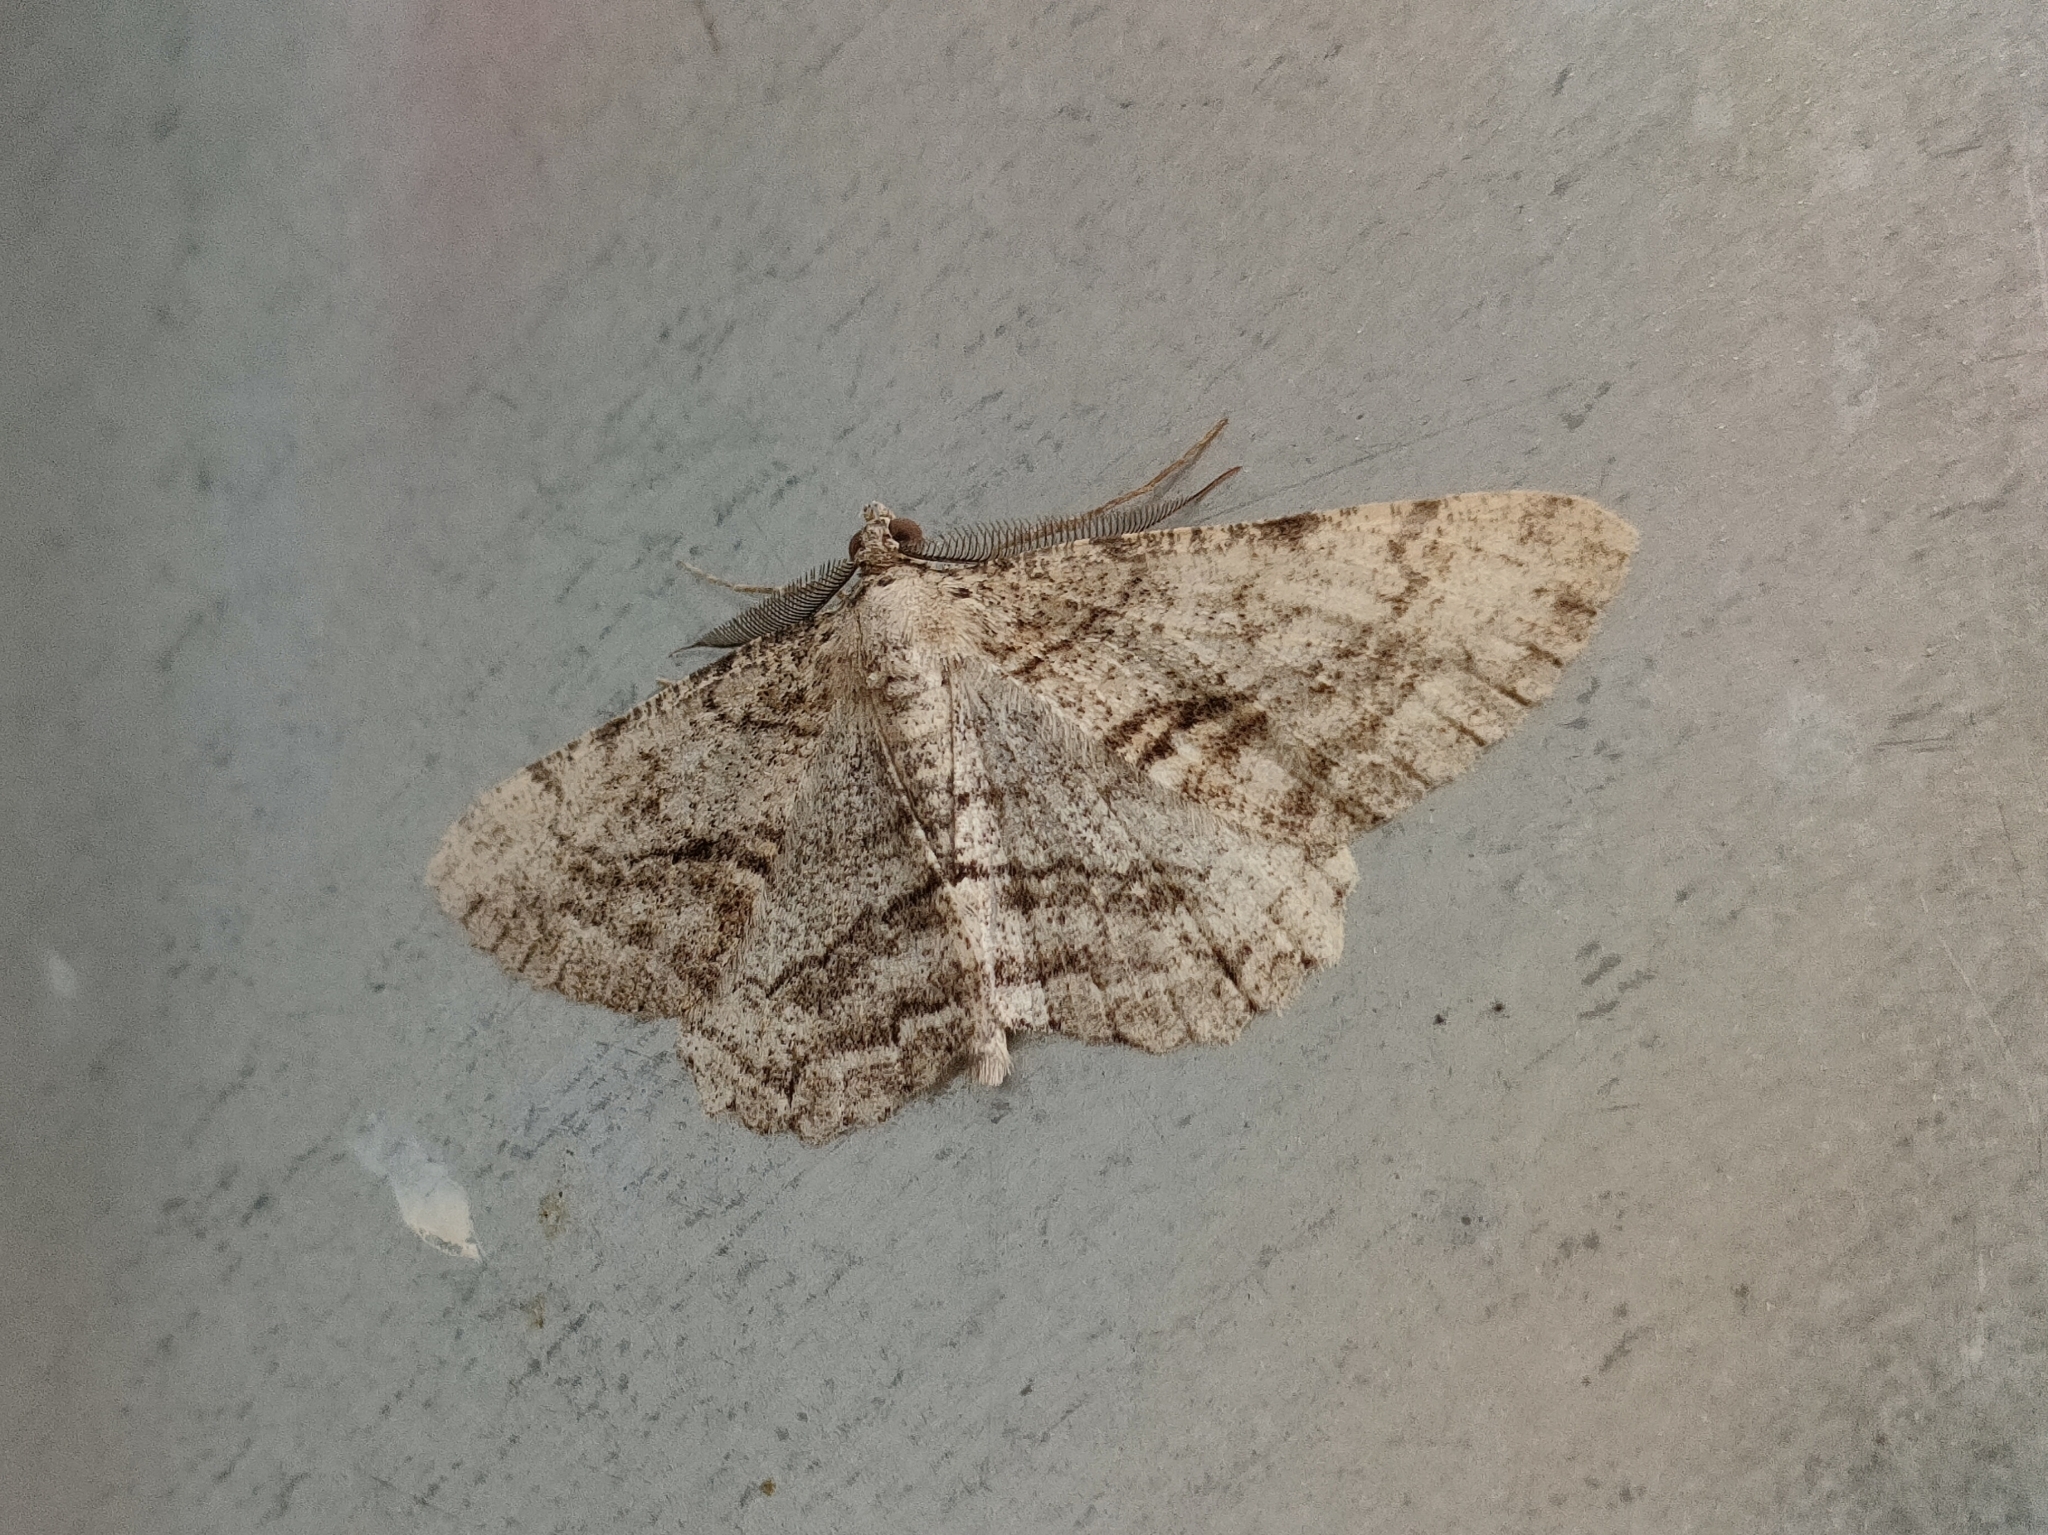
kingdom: Animalia
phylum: Arthropoda
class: Insecta
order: Lepidoptera
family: Geometridae
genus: Peribatodes
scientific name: Peribatodes perversaria
